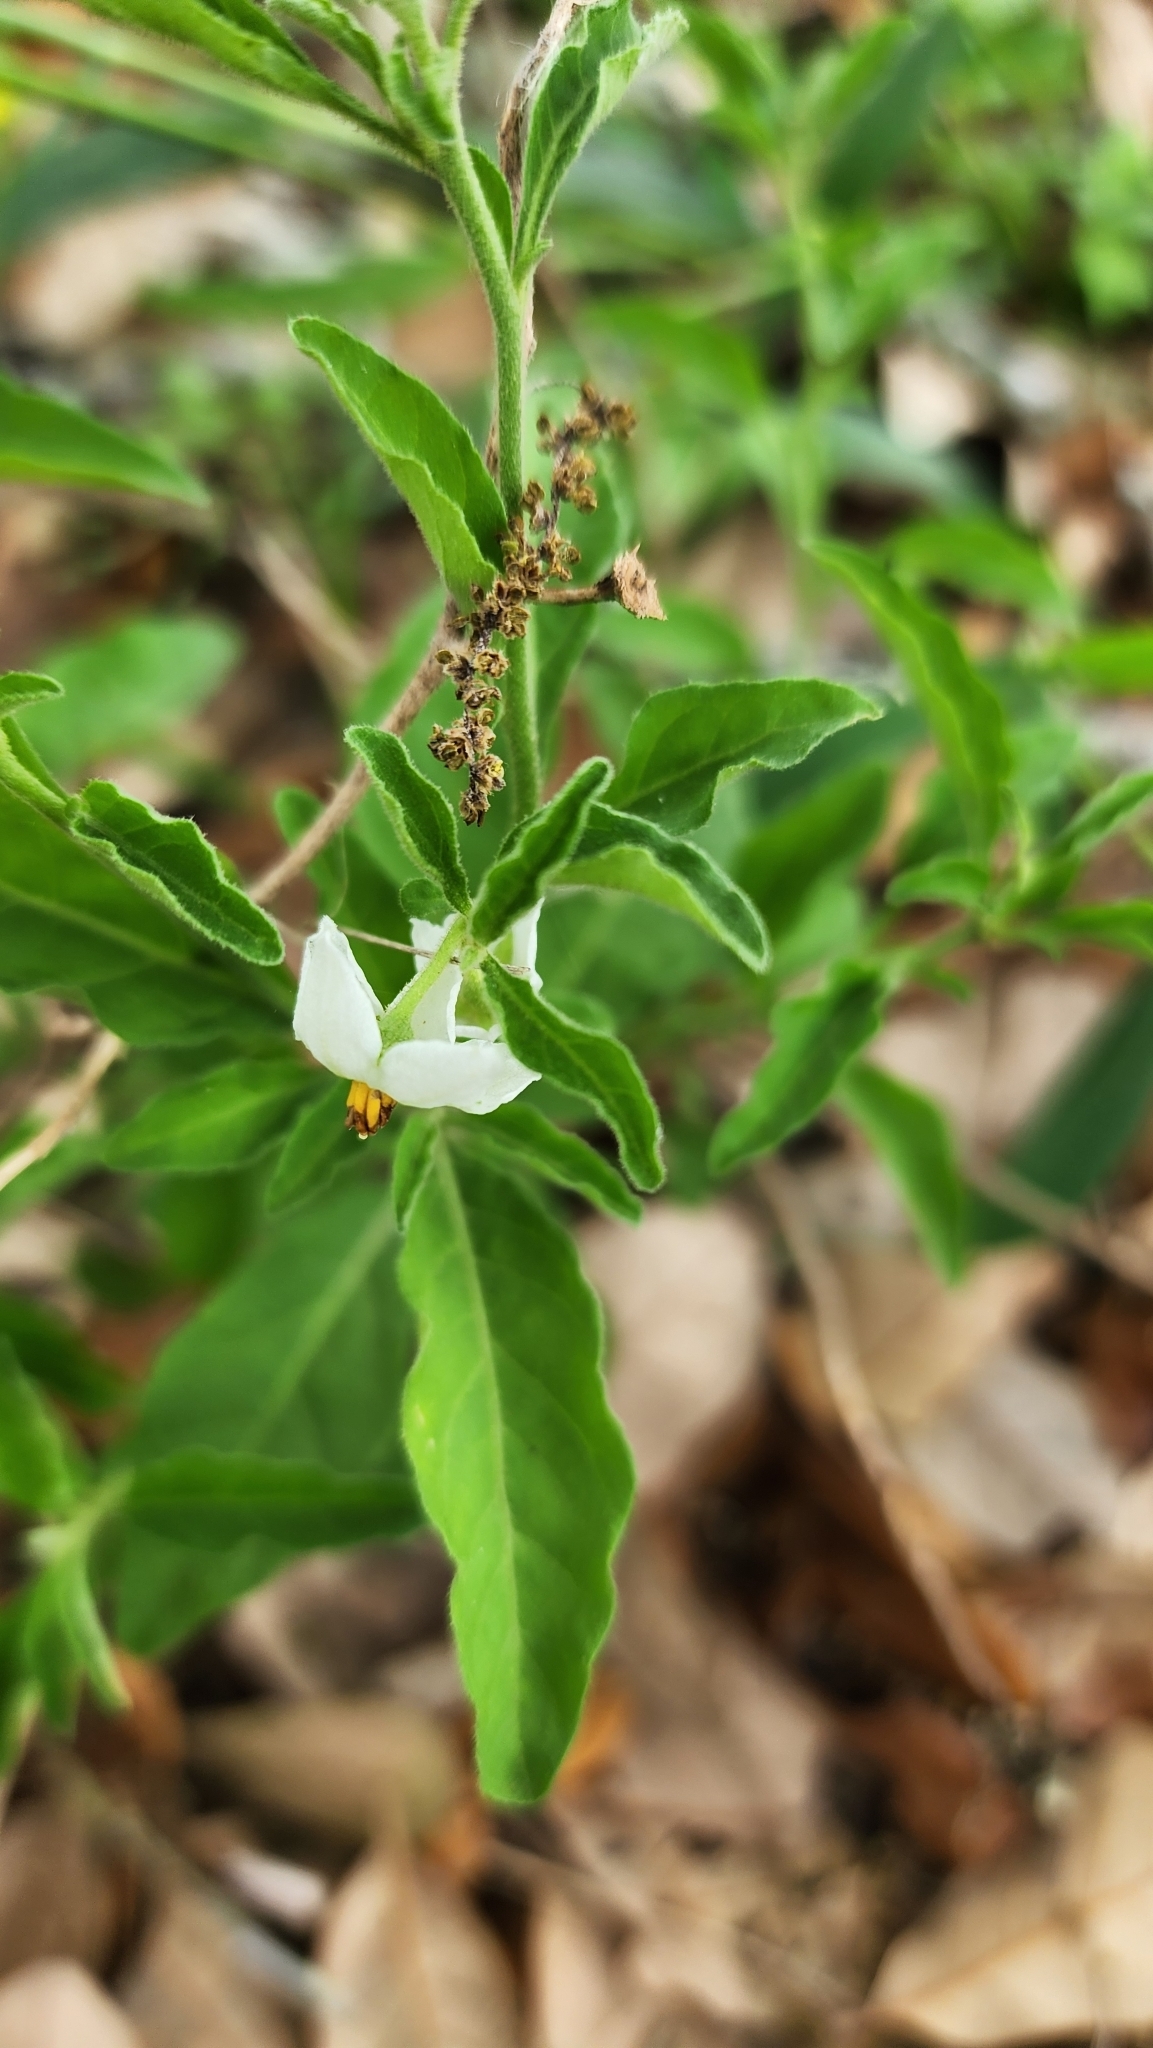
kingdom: Plantae
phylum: Tracheophyta
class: Magnoliopsida
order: Solanales
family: Solanaceae
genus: Solanum
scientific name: Solanum pseudocapsicum
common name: Jerusalem cherry
